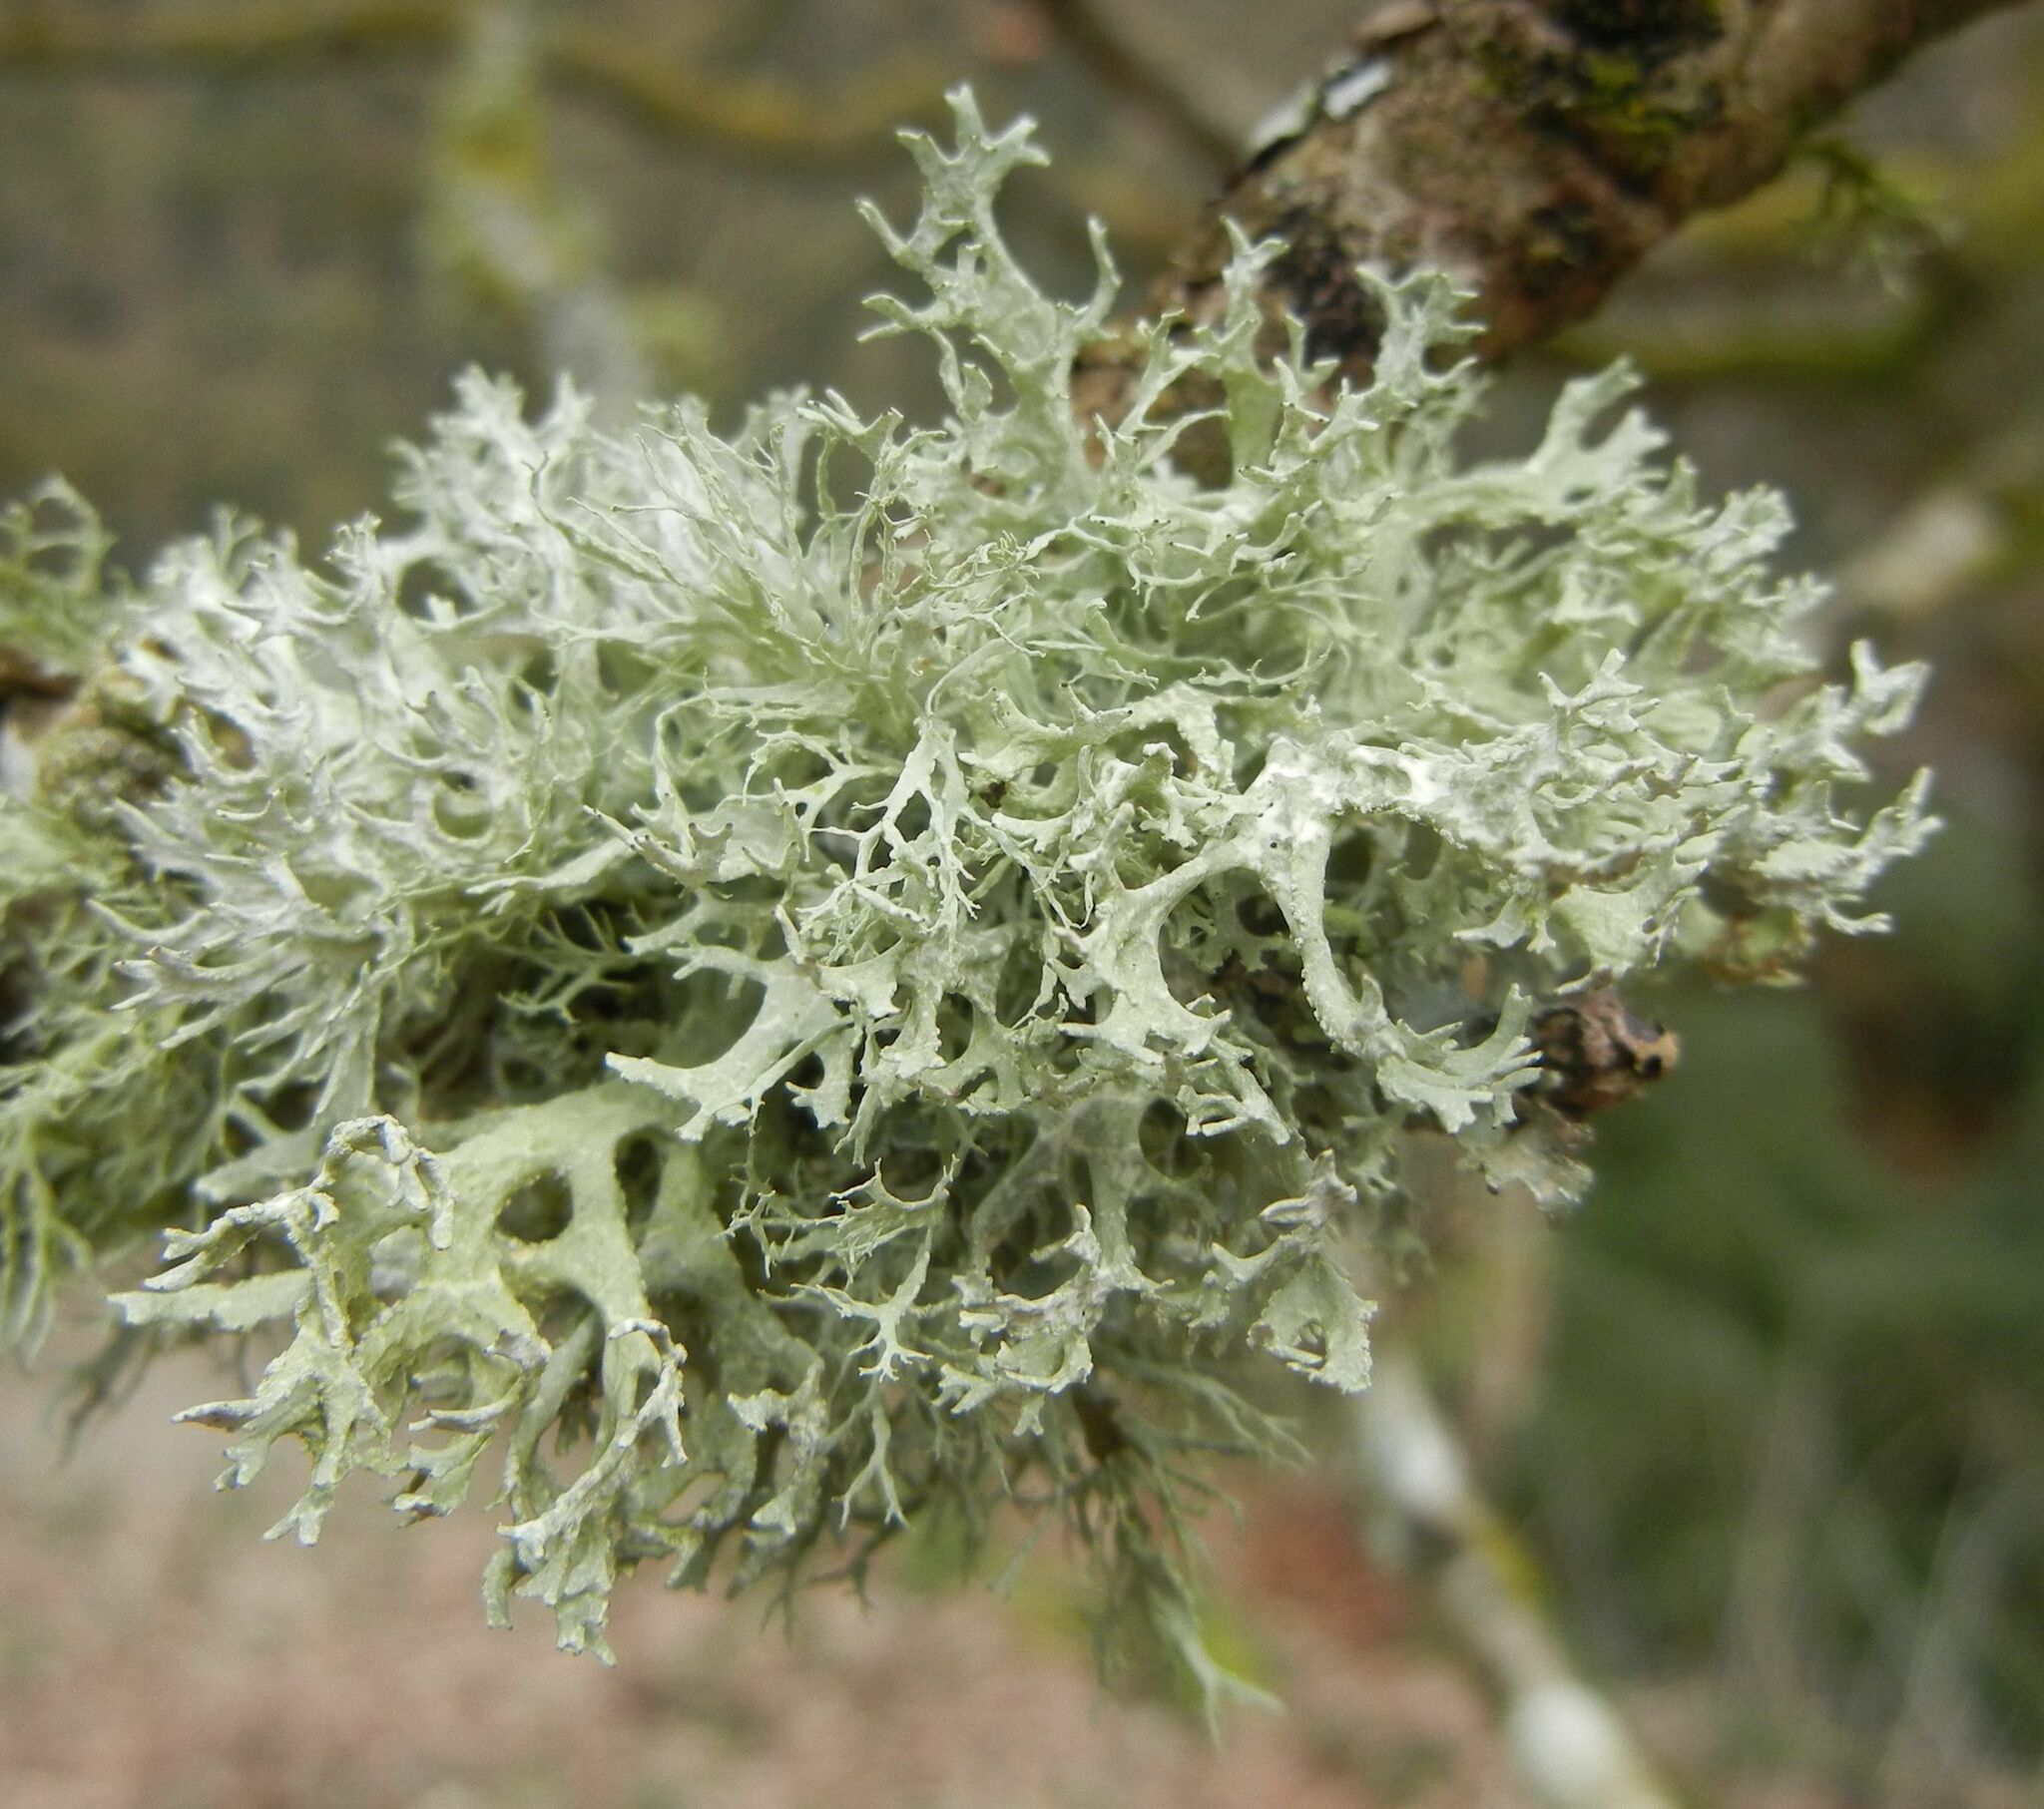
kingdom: Fungi
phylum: Ascomycota
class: Lecanoromycetes
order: Lecanorales
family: Parmeliaceae
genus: Evernia
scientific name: Evernia prunastri
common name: Oak moss
